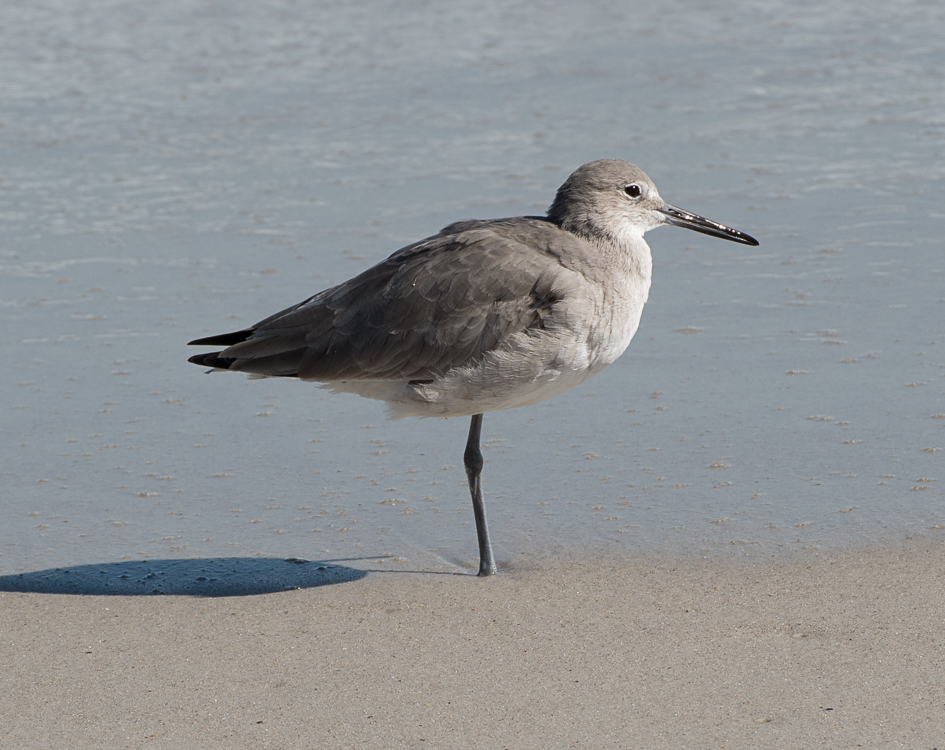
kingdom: Animalia
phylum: Chordata
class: Aves
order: Charadriiformes
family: Scolopacidae
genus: Tringa
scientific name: Tringa semipalmata
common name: Willet
